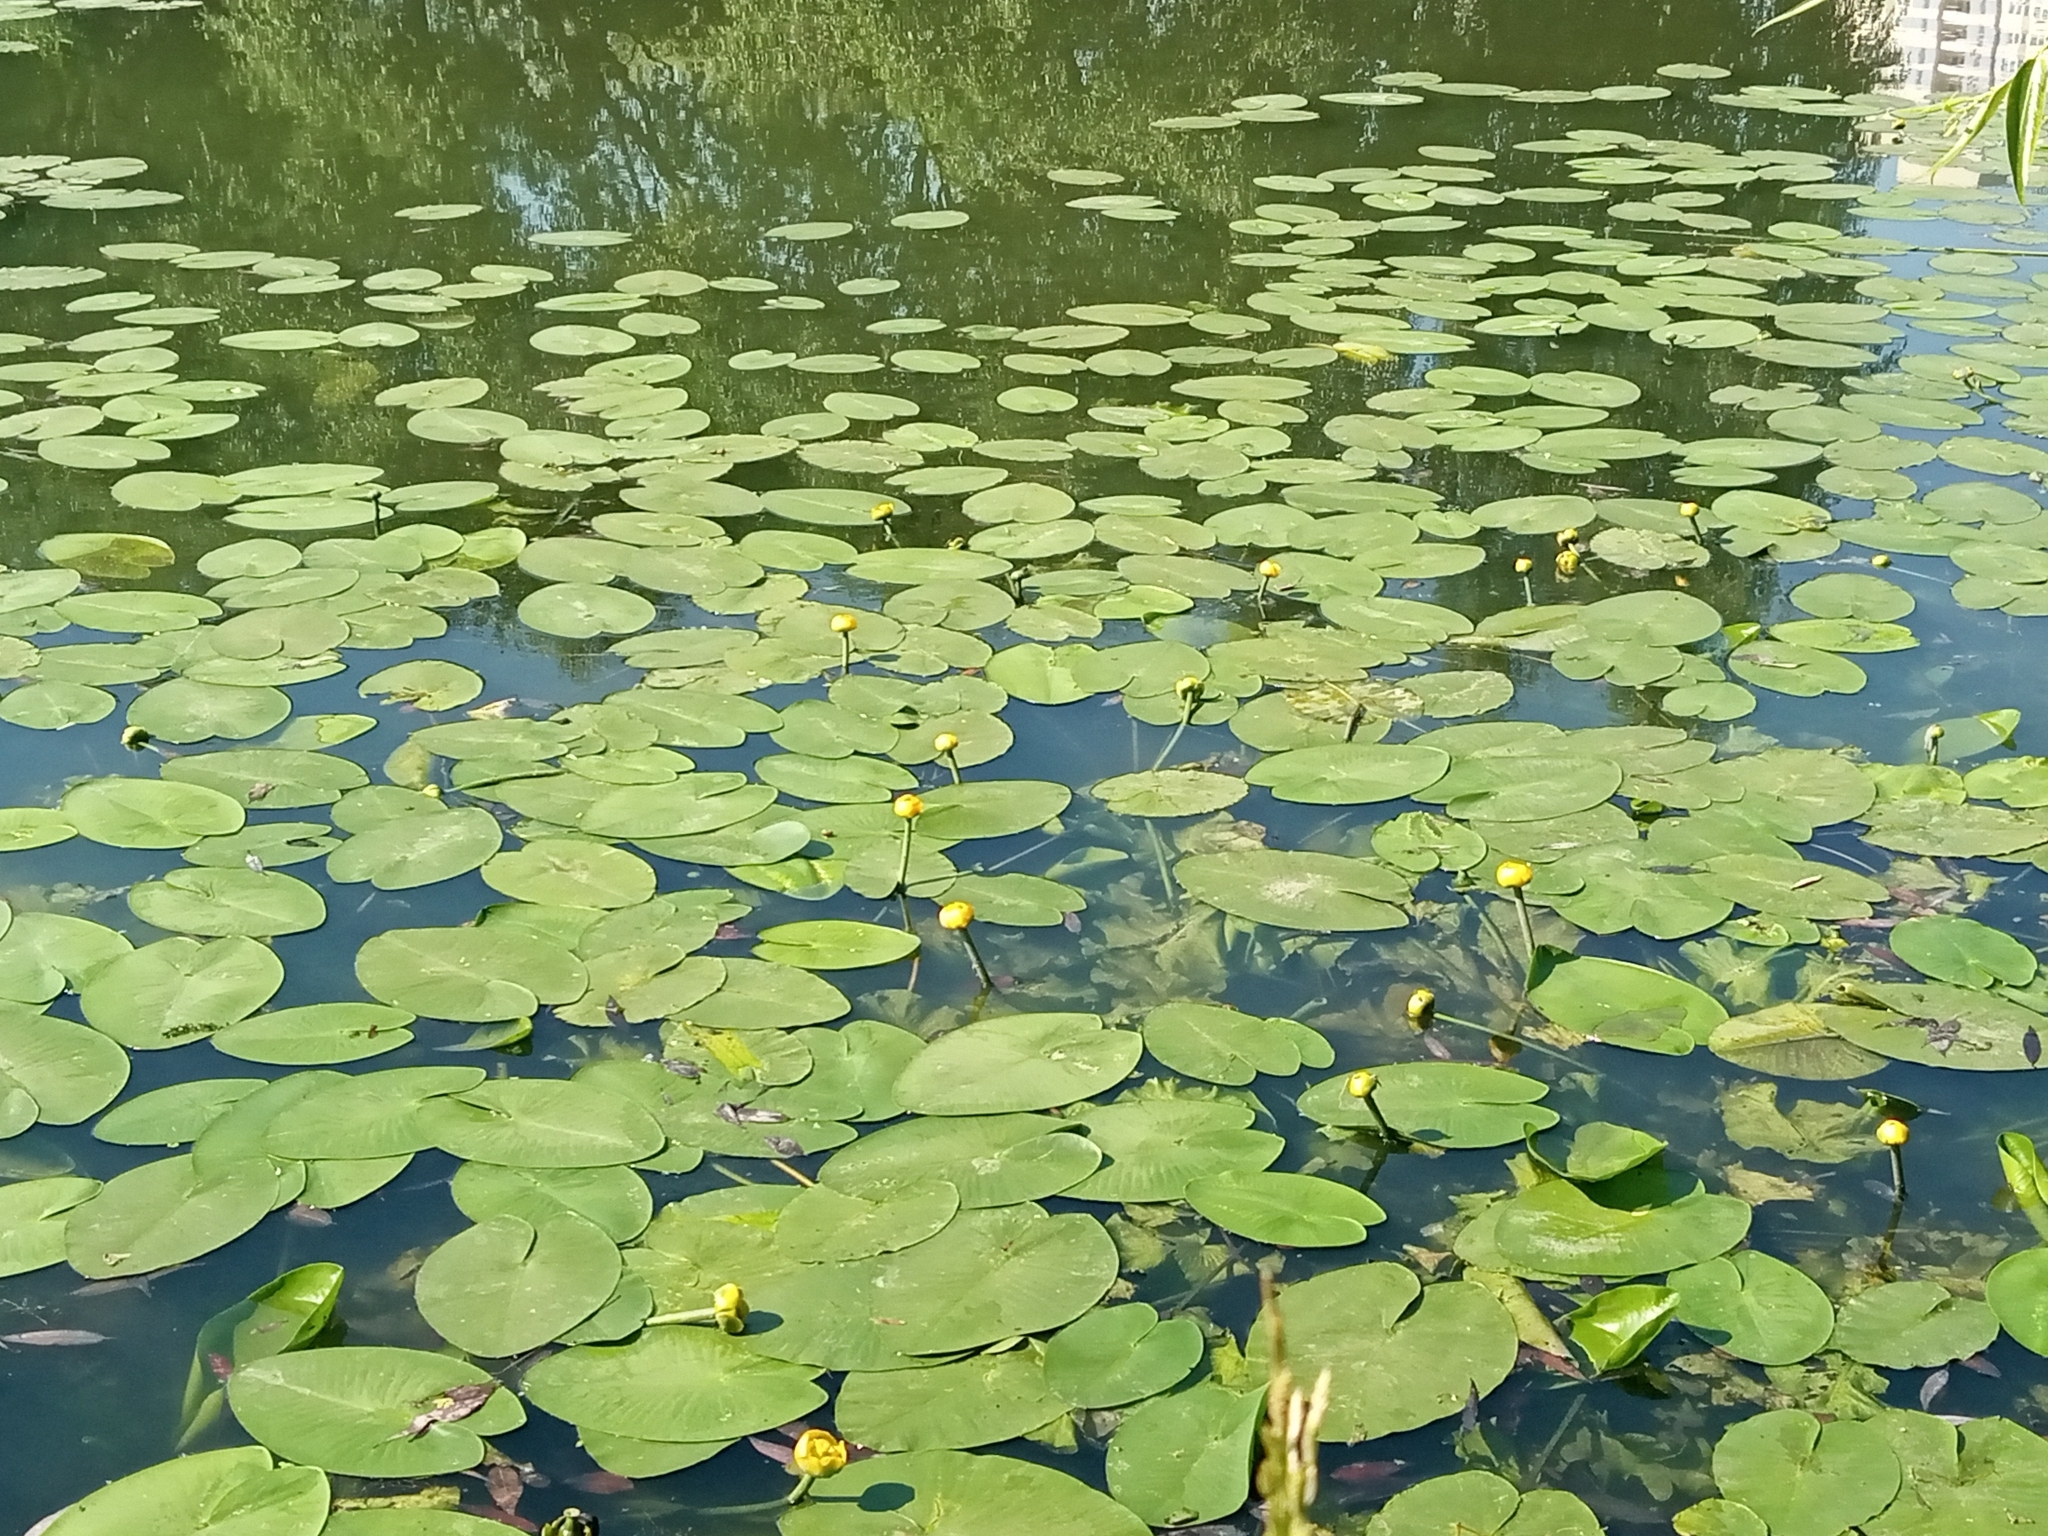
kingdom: Plantae
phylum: Tracheophyta
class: Magnoliopsida
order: Nymphaeales
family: Nymphaeaceae
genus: Nuphar
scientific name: Nuphar lutea
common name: Yellow water-lily
